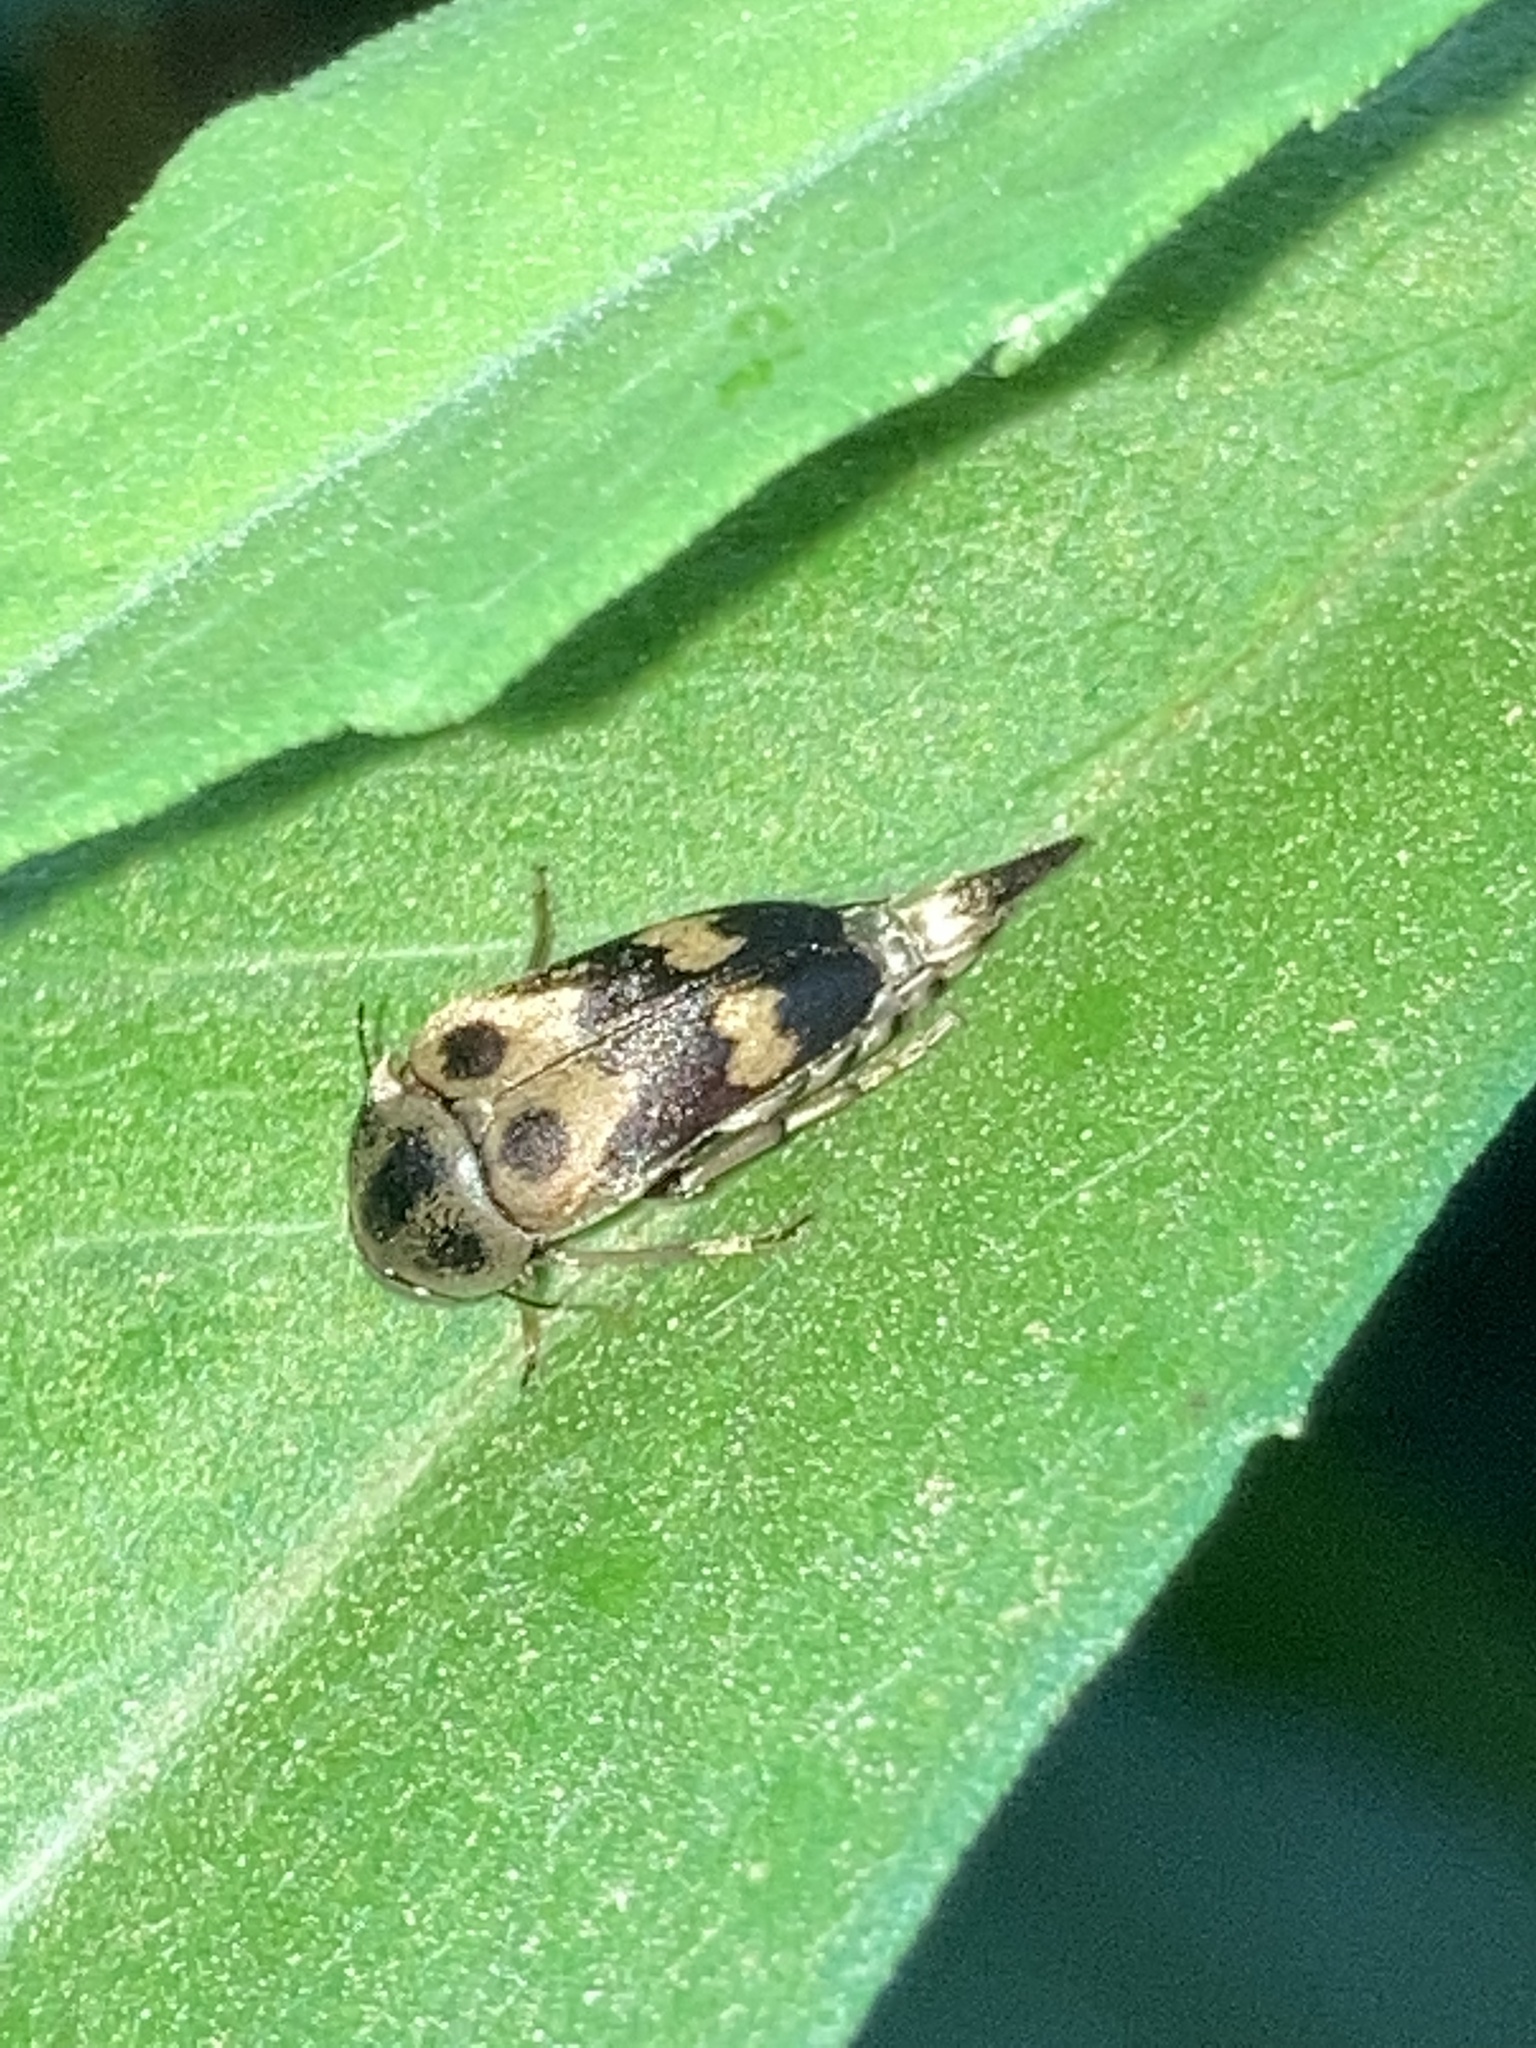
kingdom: Animalia
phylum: Arthropoda
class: Insecta
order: Coleoptera
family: Mordellidae
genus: Glipa
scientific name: Glipa oculata
